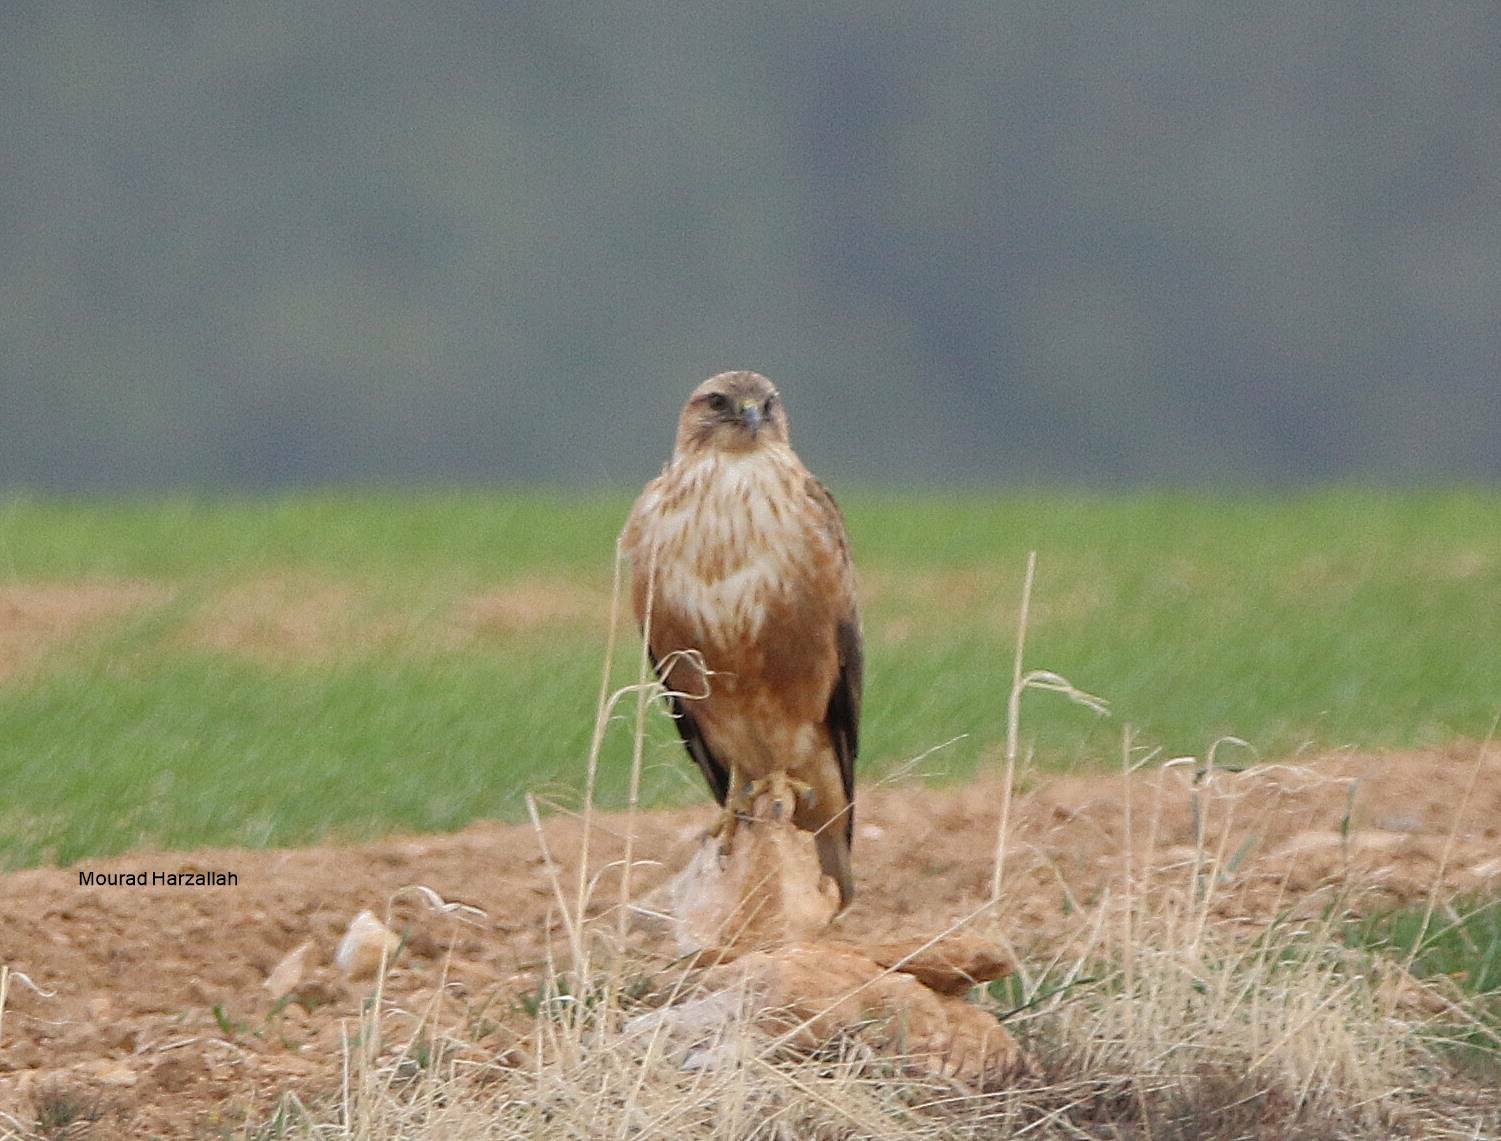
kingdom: Animalia
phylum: Chordata
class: Aves
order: Accipitriformes
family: Accipitridae
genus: Buteo
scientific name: Buteo rufinus
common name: Long-legged buzzard
